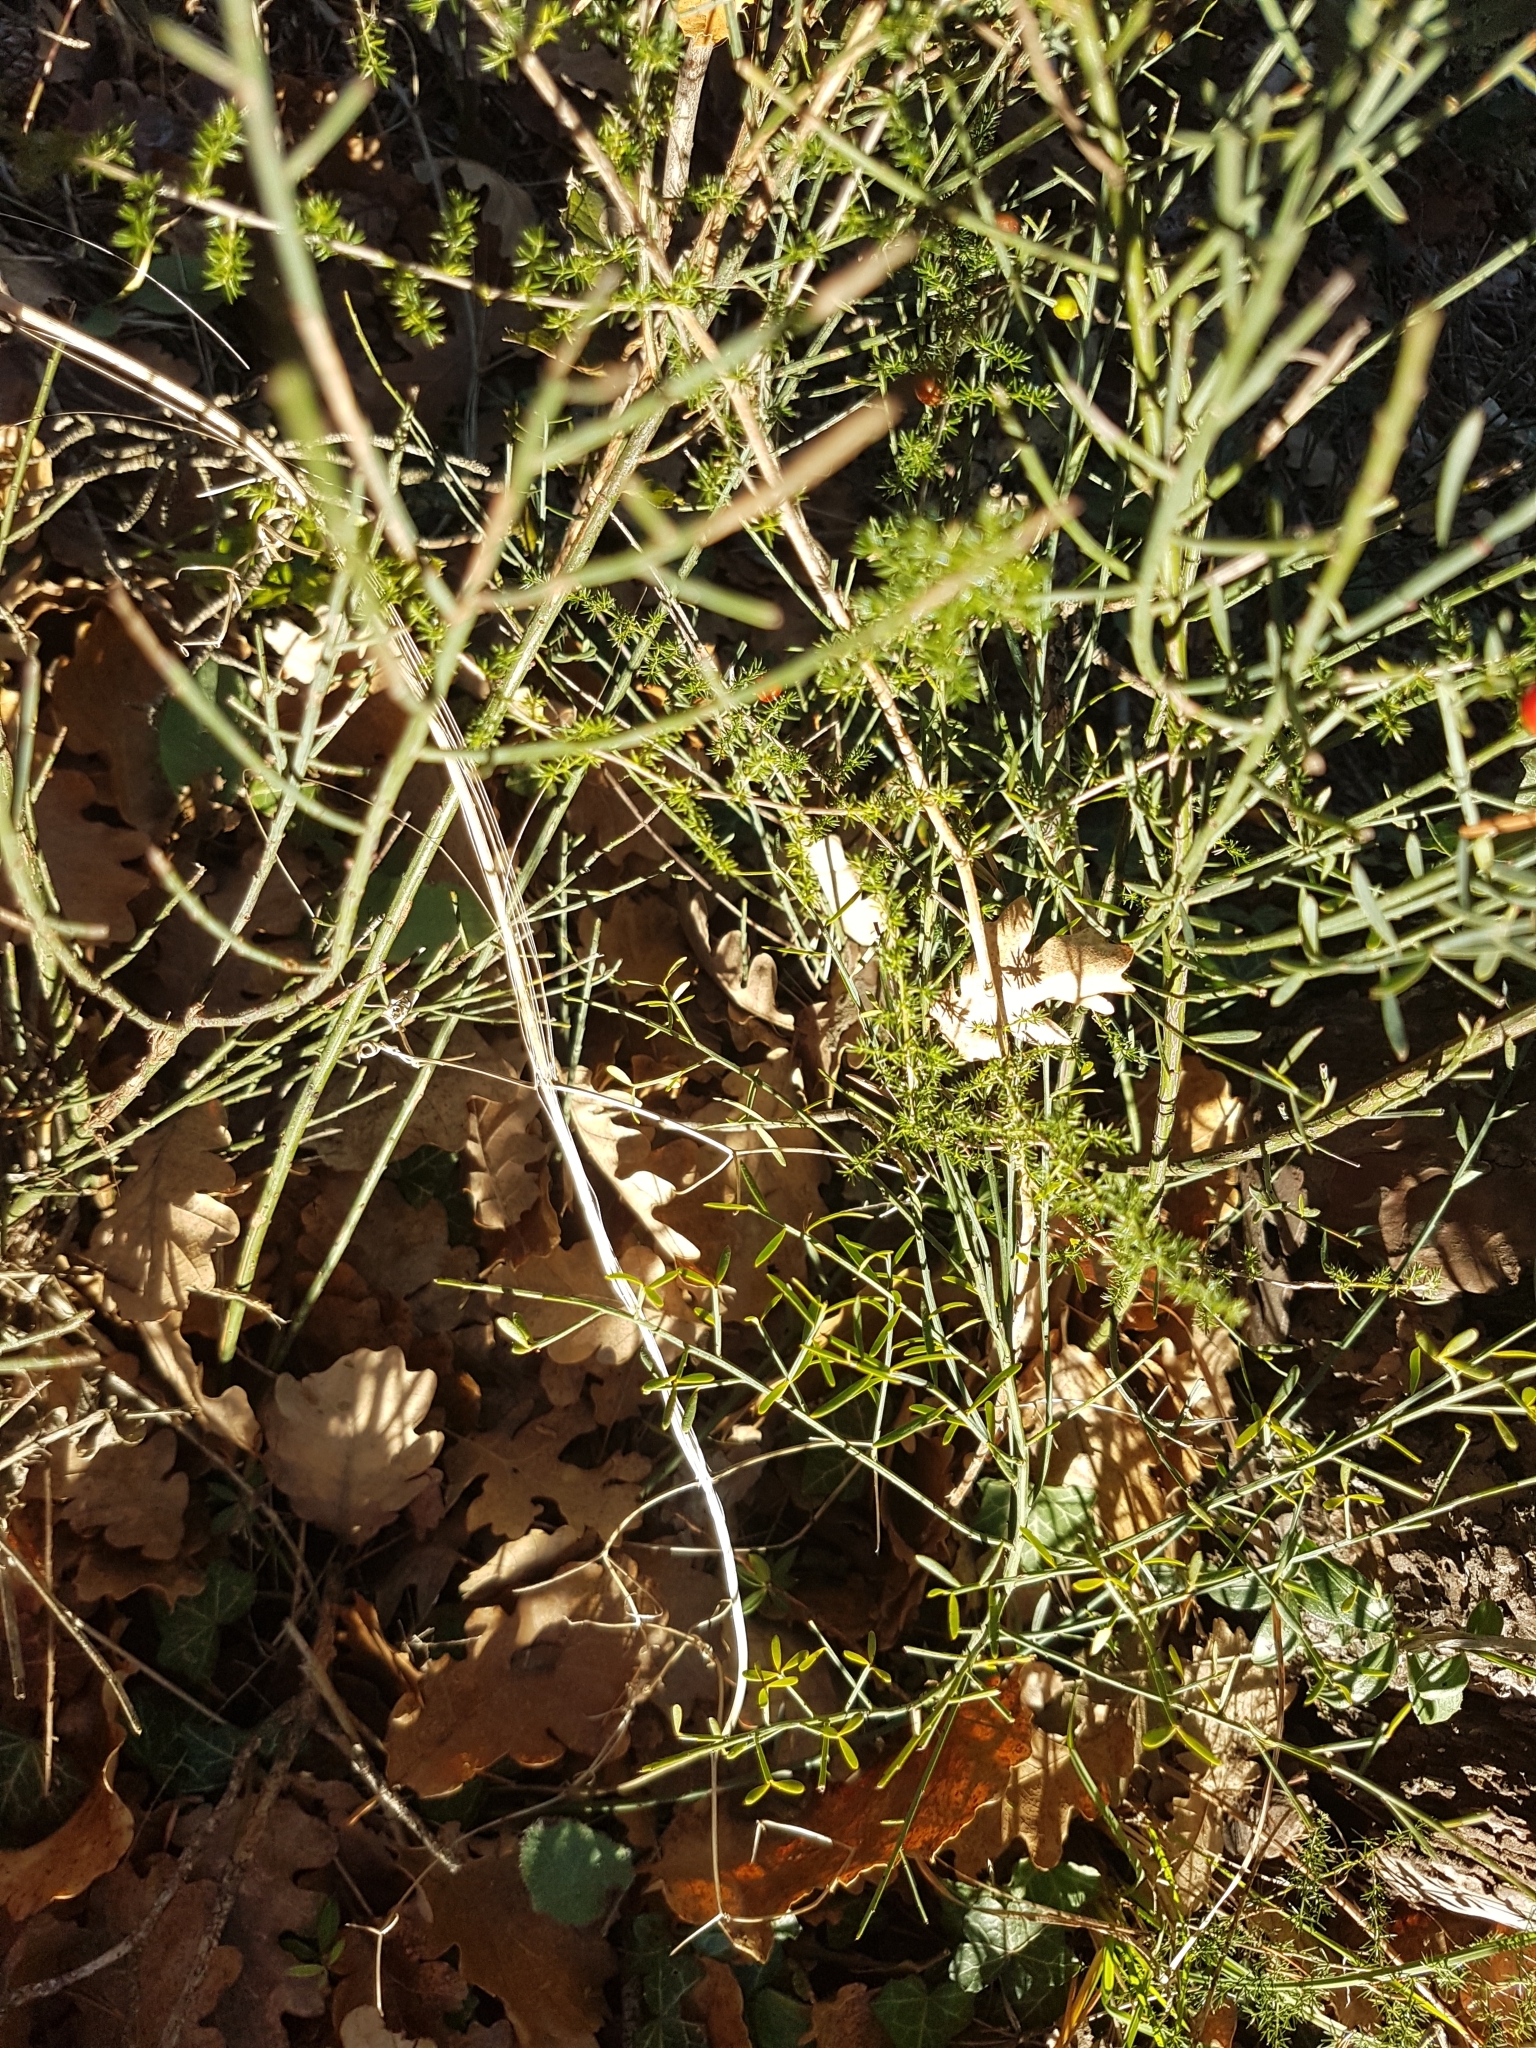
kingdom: Plantae
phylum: Tracheophyta
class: Liliopsida
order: Asparagales
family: Asparagaceae
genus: Asparagus
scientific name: Asparagus acutifolius
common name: Wild asparagus
